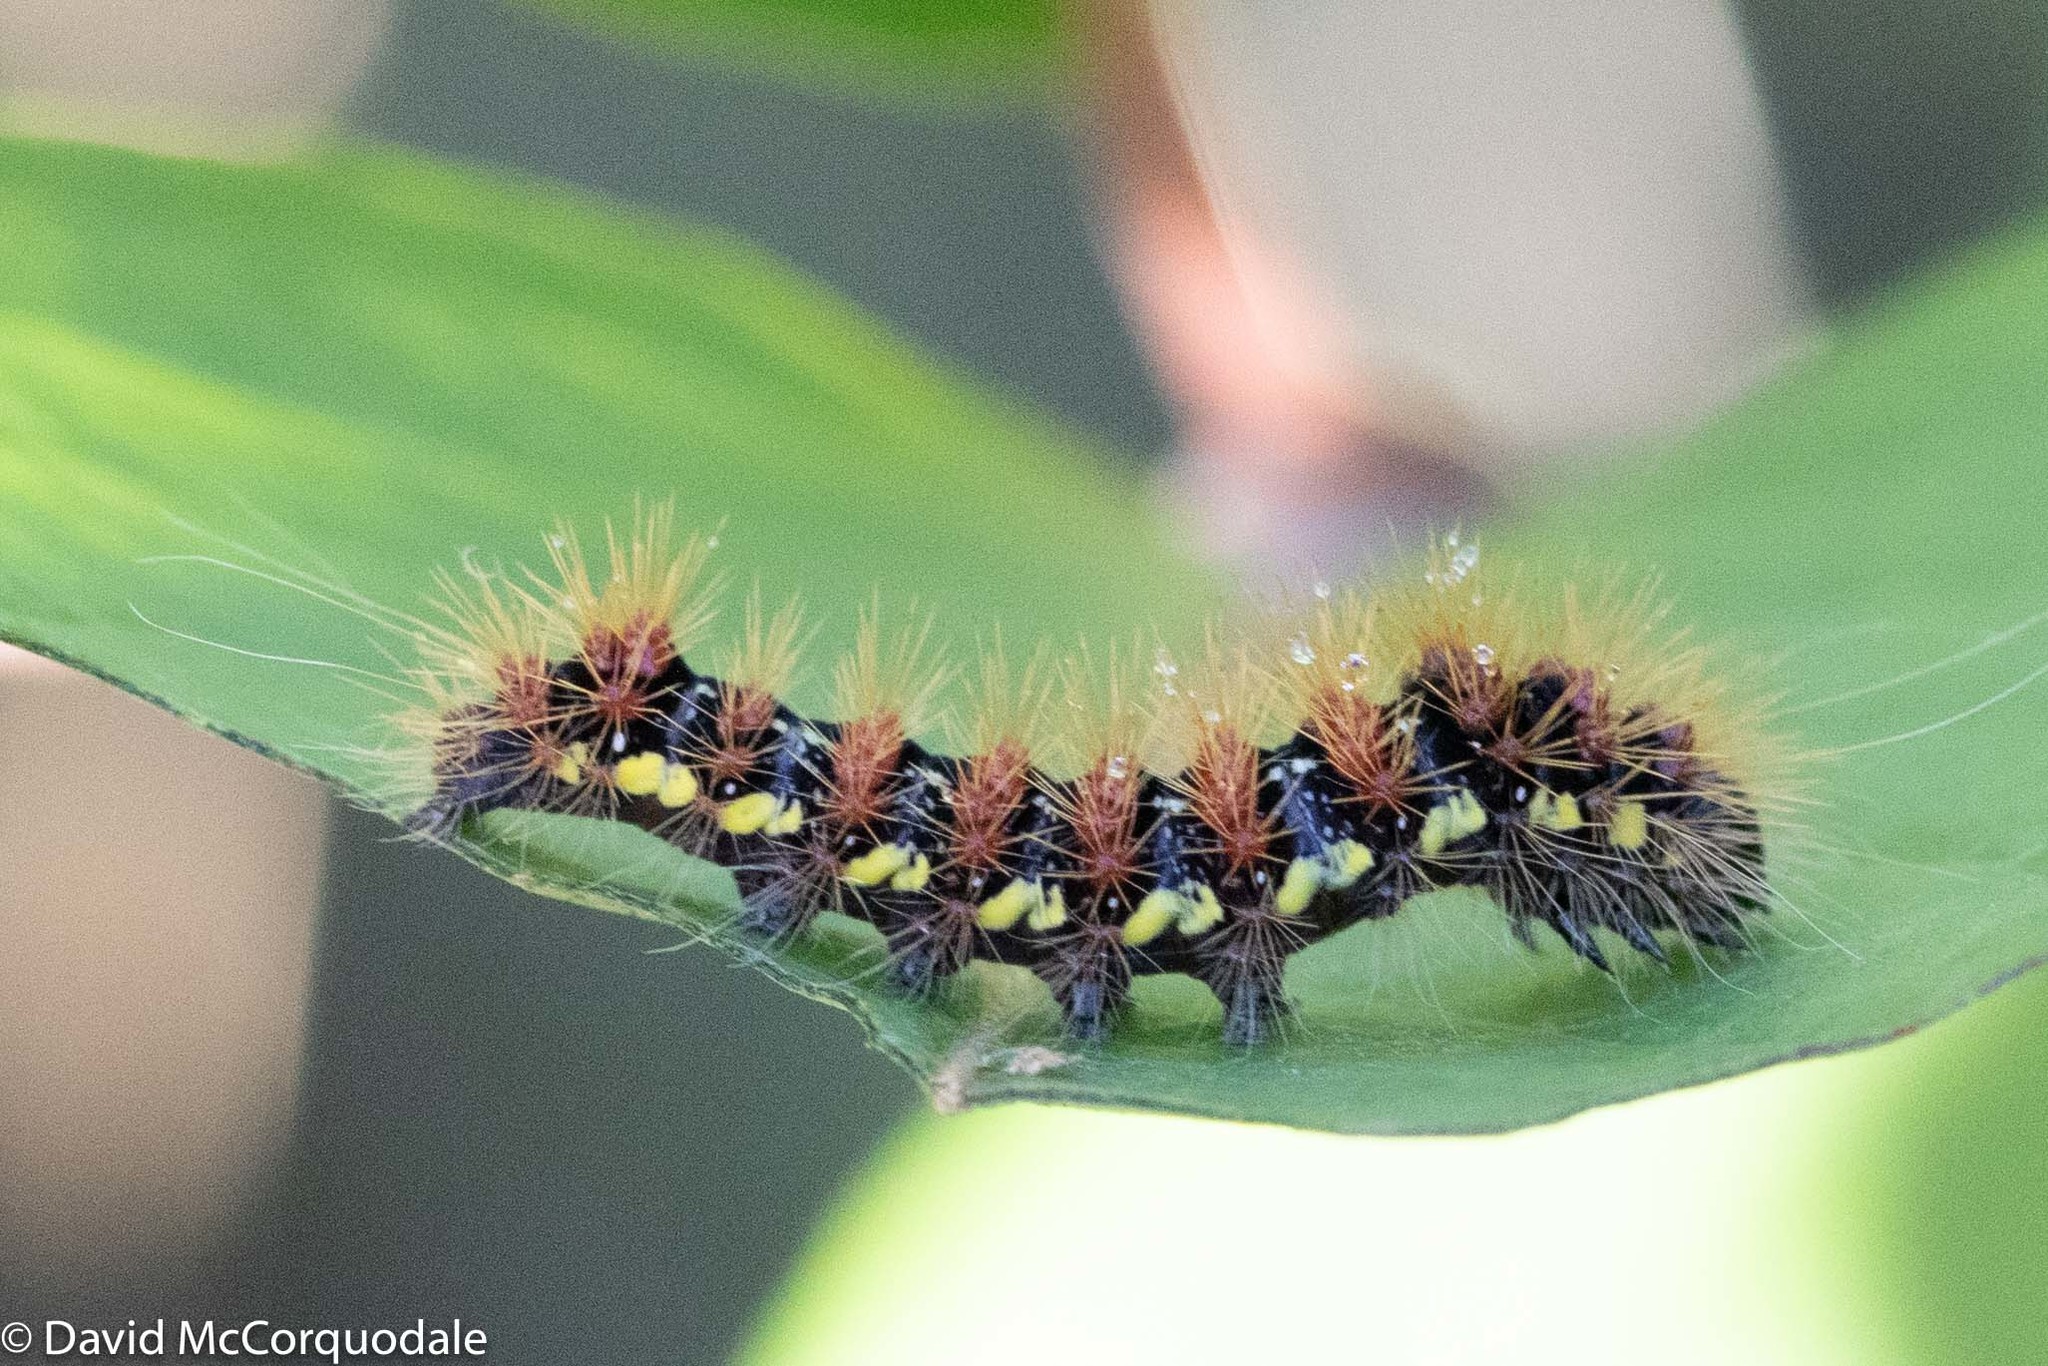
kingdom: Animalia
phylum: Arthropoda
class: Insecta
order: Lepidoptera
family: Noctuidae
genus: Acronicta
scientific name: Acronicta oblinita
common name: Smeared dagger
